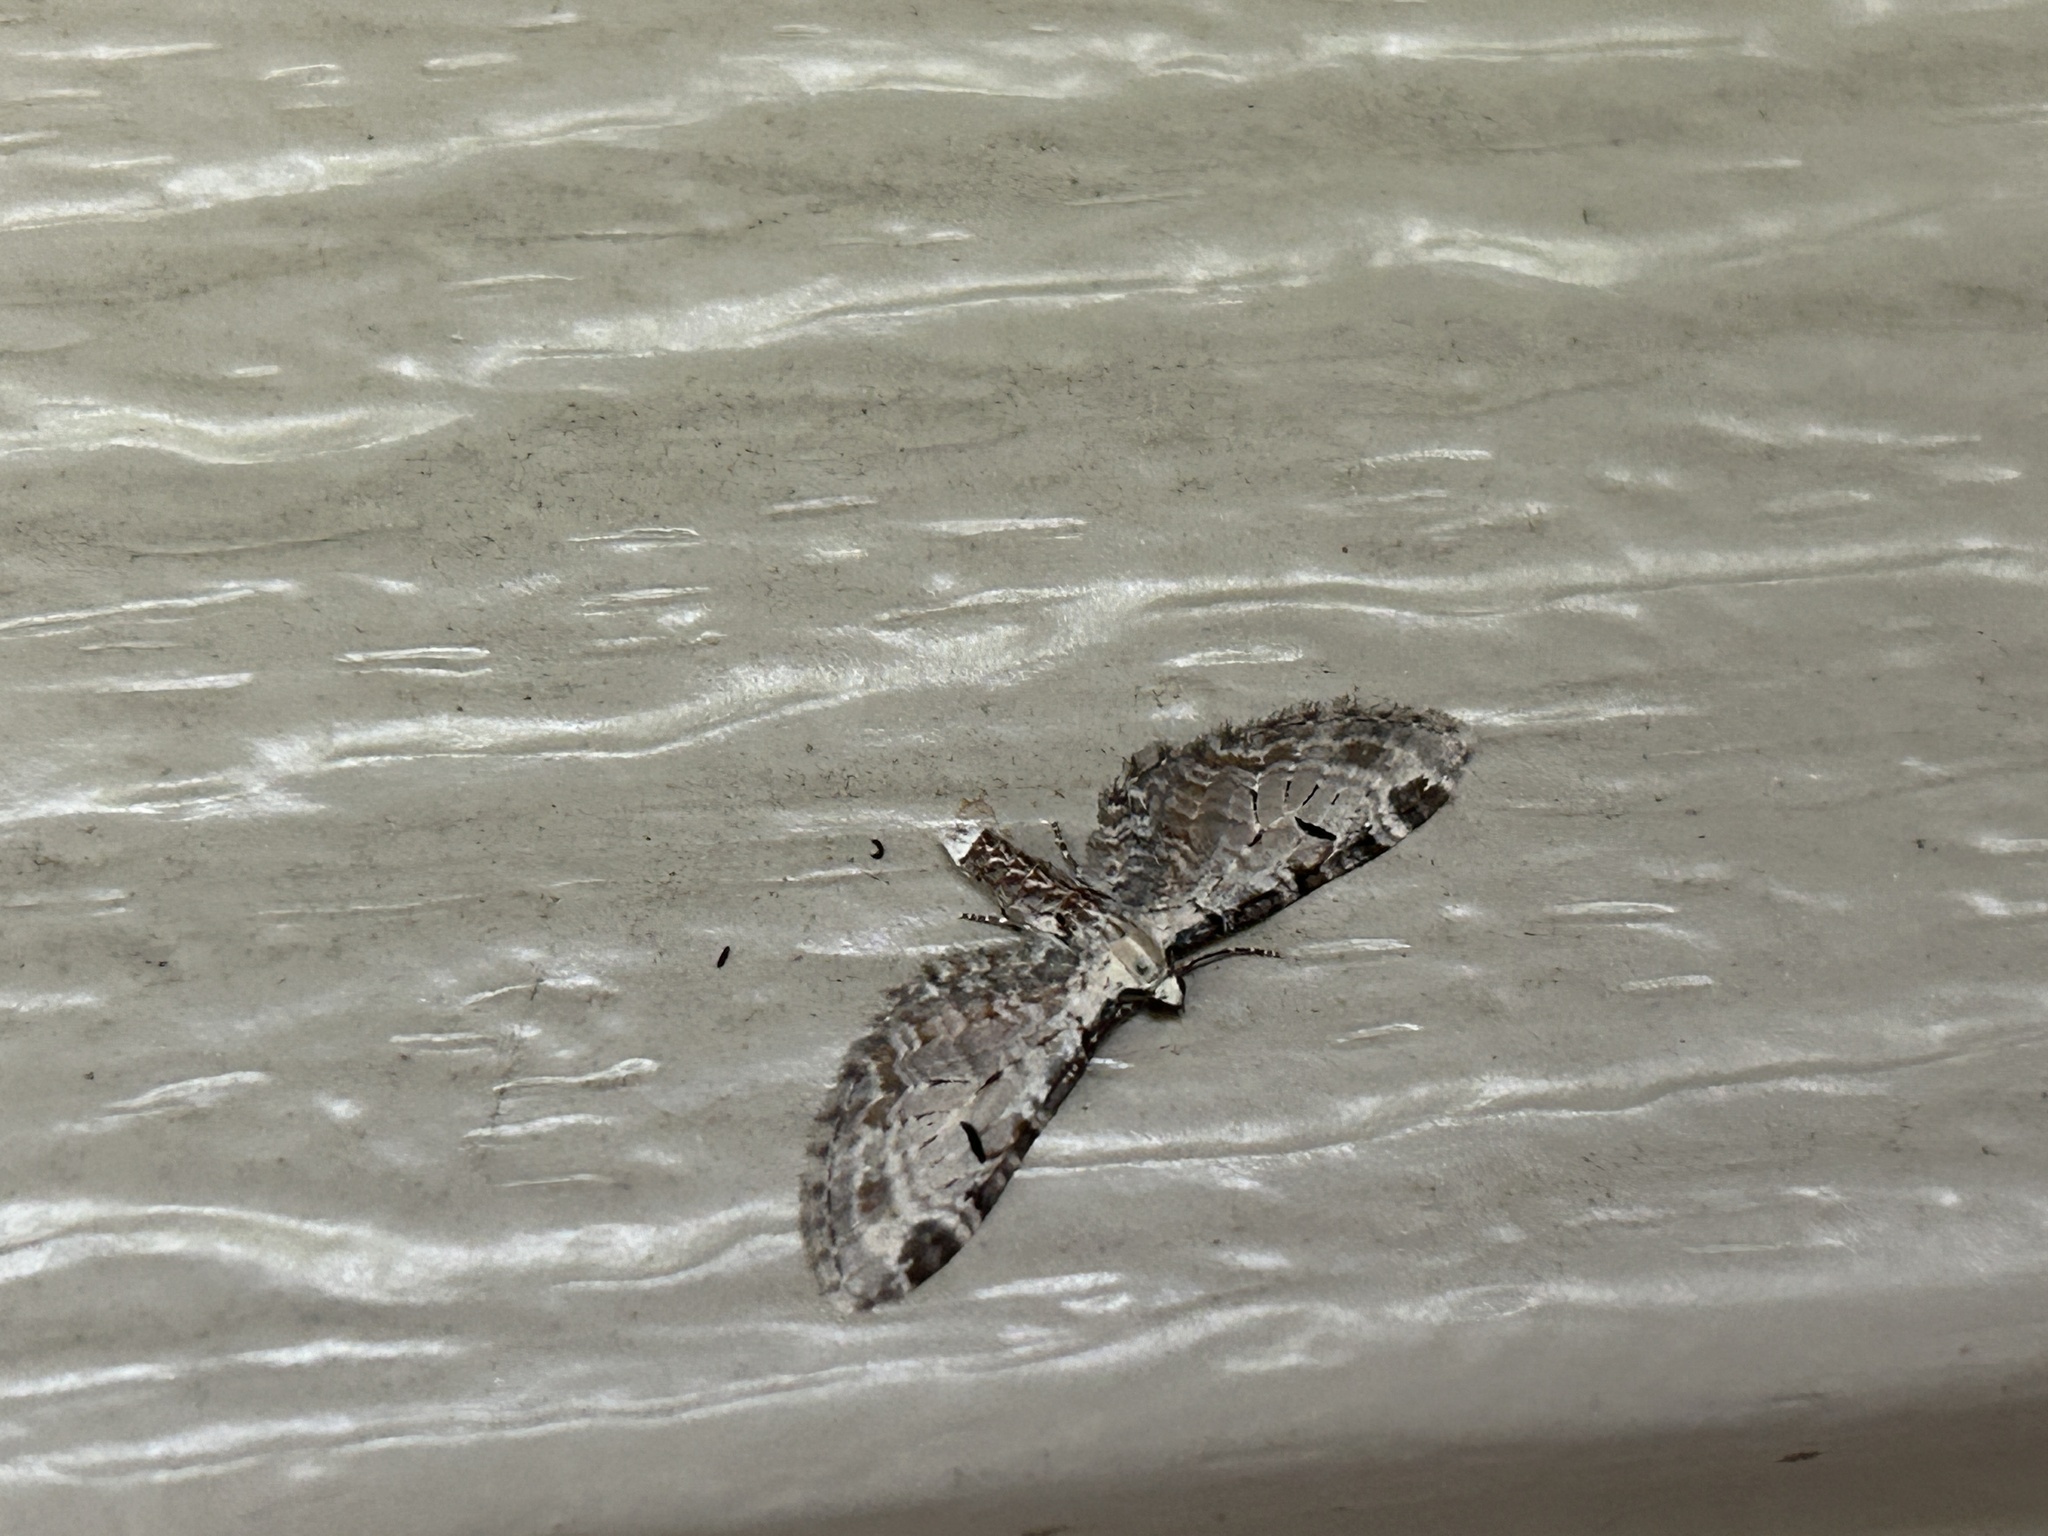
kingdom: Animalia
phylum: Arthropoda
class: Insecta
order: Lepidoptera
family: Geometridae
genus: Eupithecia
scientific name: Eupithecia ravocostaliata
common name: Great varigated pug
